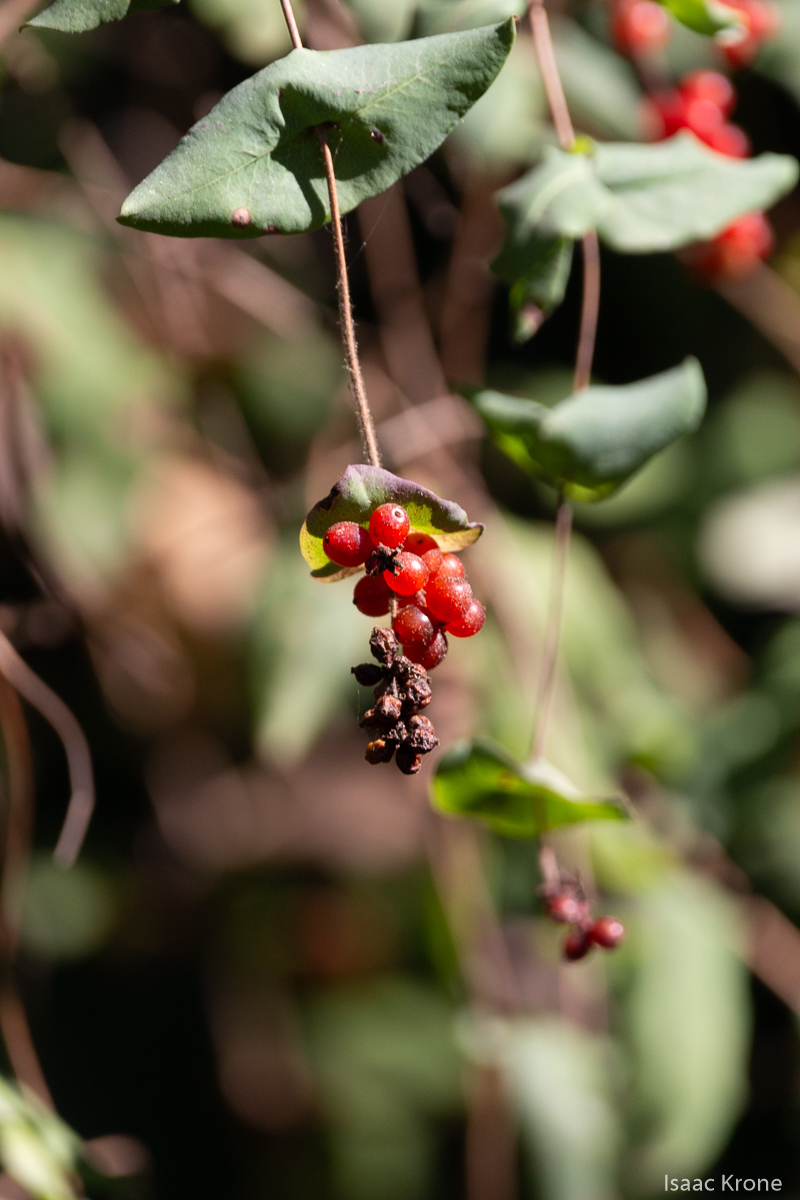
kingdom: Plantae
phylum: Tracheophyta
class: Magnoliopsida
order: Dipsacales
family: Caprifoliaceae
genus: Lonicera
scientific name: Lonicera hispidula
